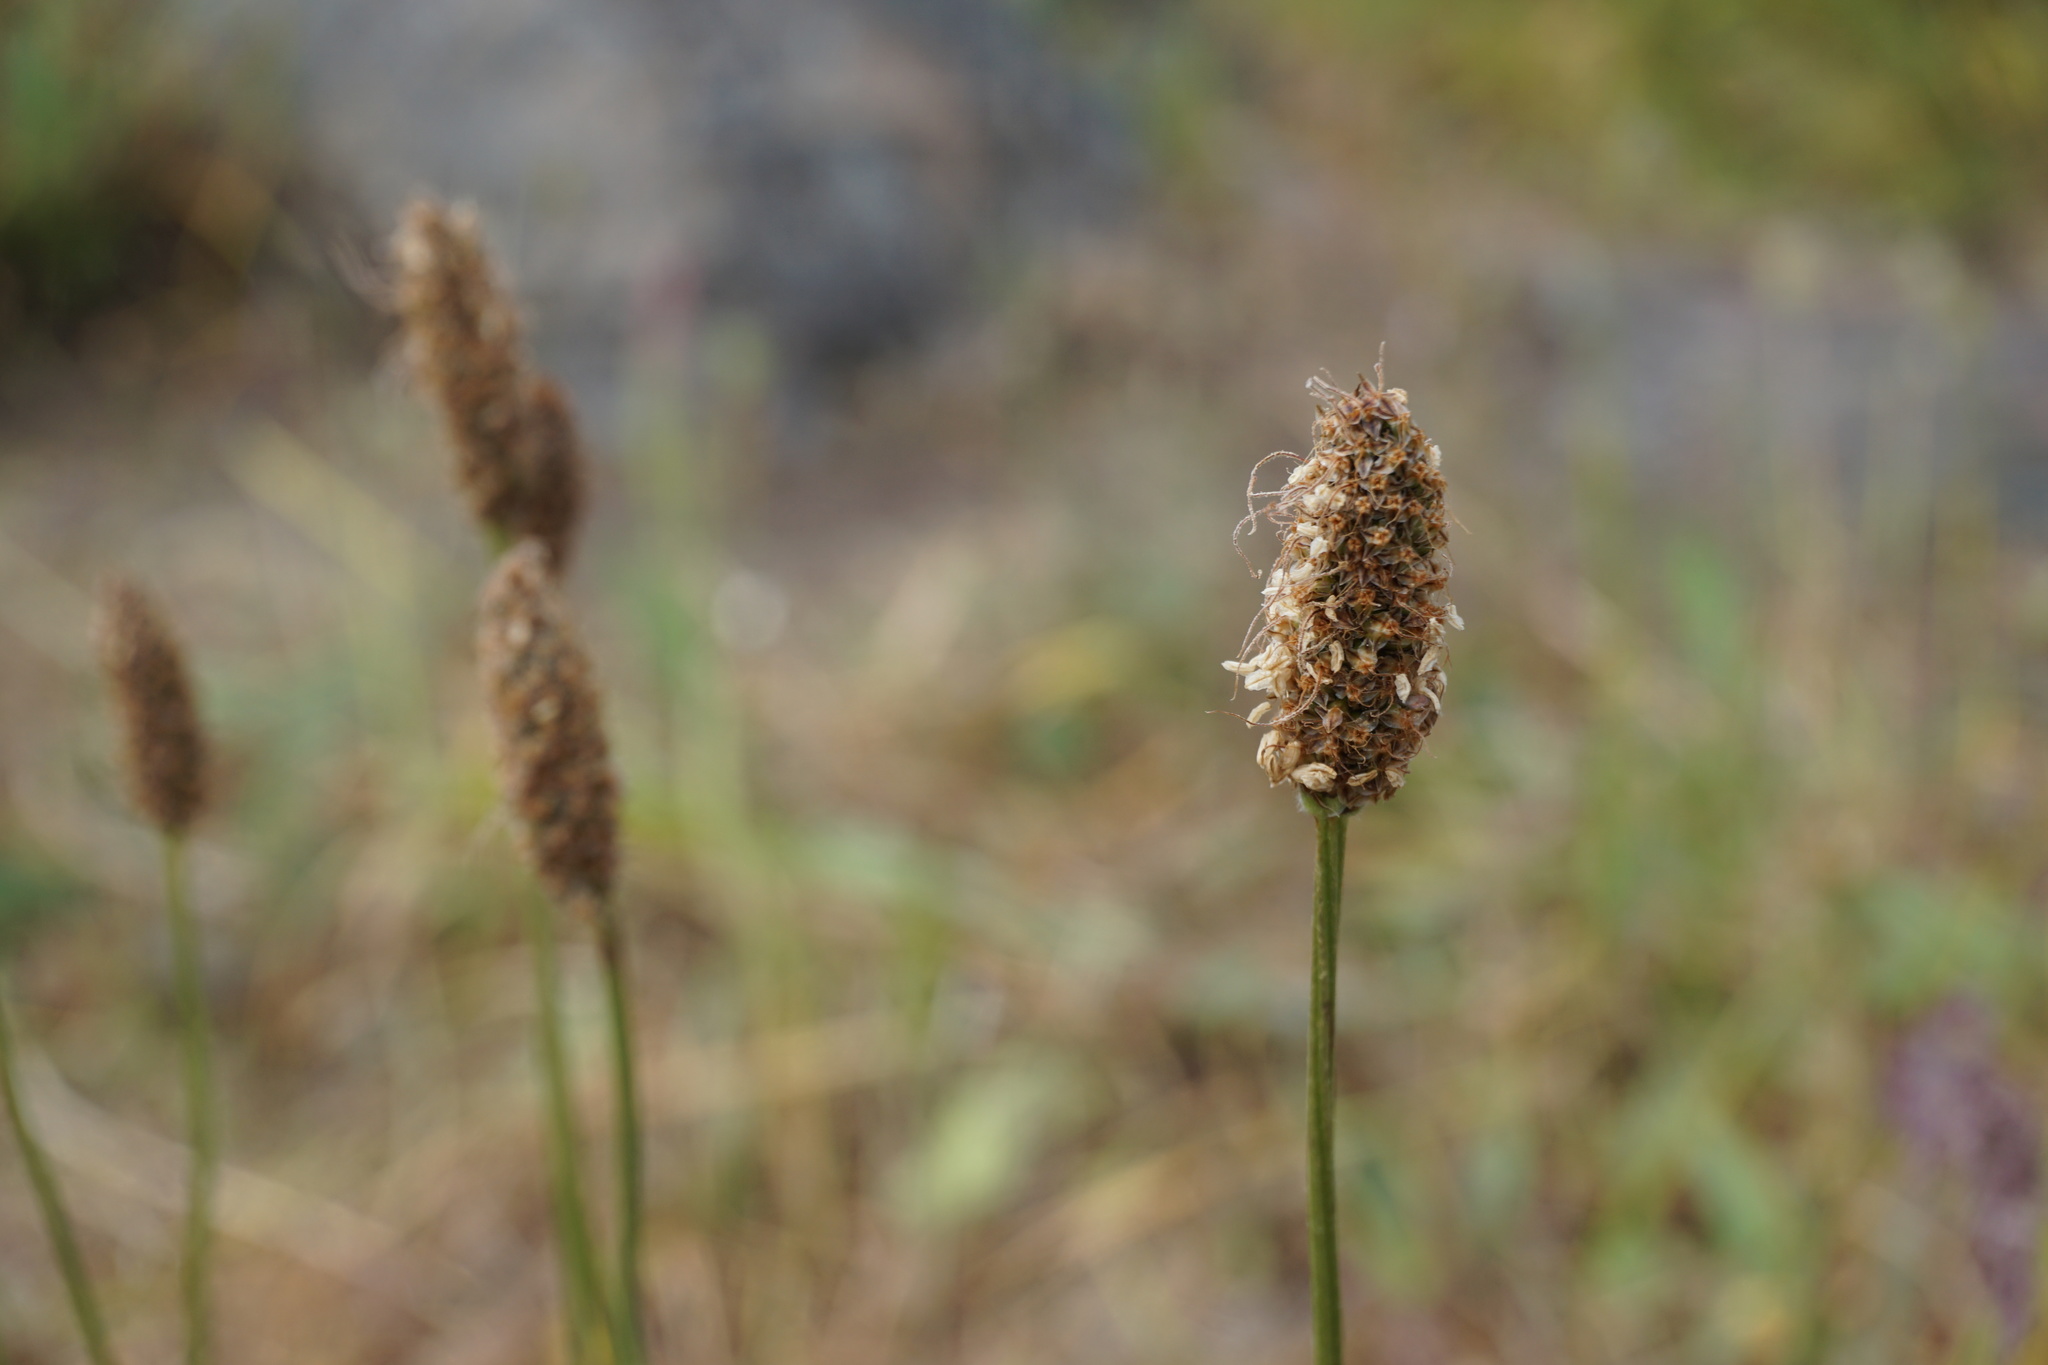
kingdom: Plantae
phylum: Tracheophyta
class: Magnoliopsida
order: Lamiales
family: Plantaginaceae
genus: Plantago
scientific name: Plantago lanceolata
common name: Ribwort plantain
